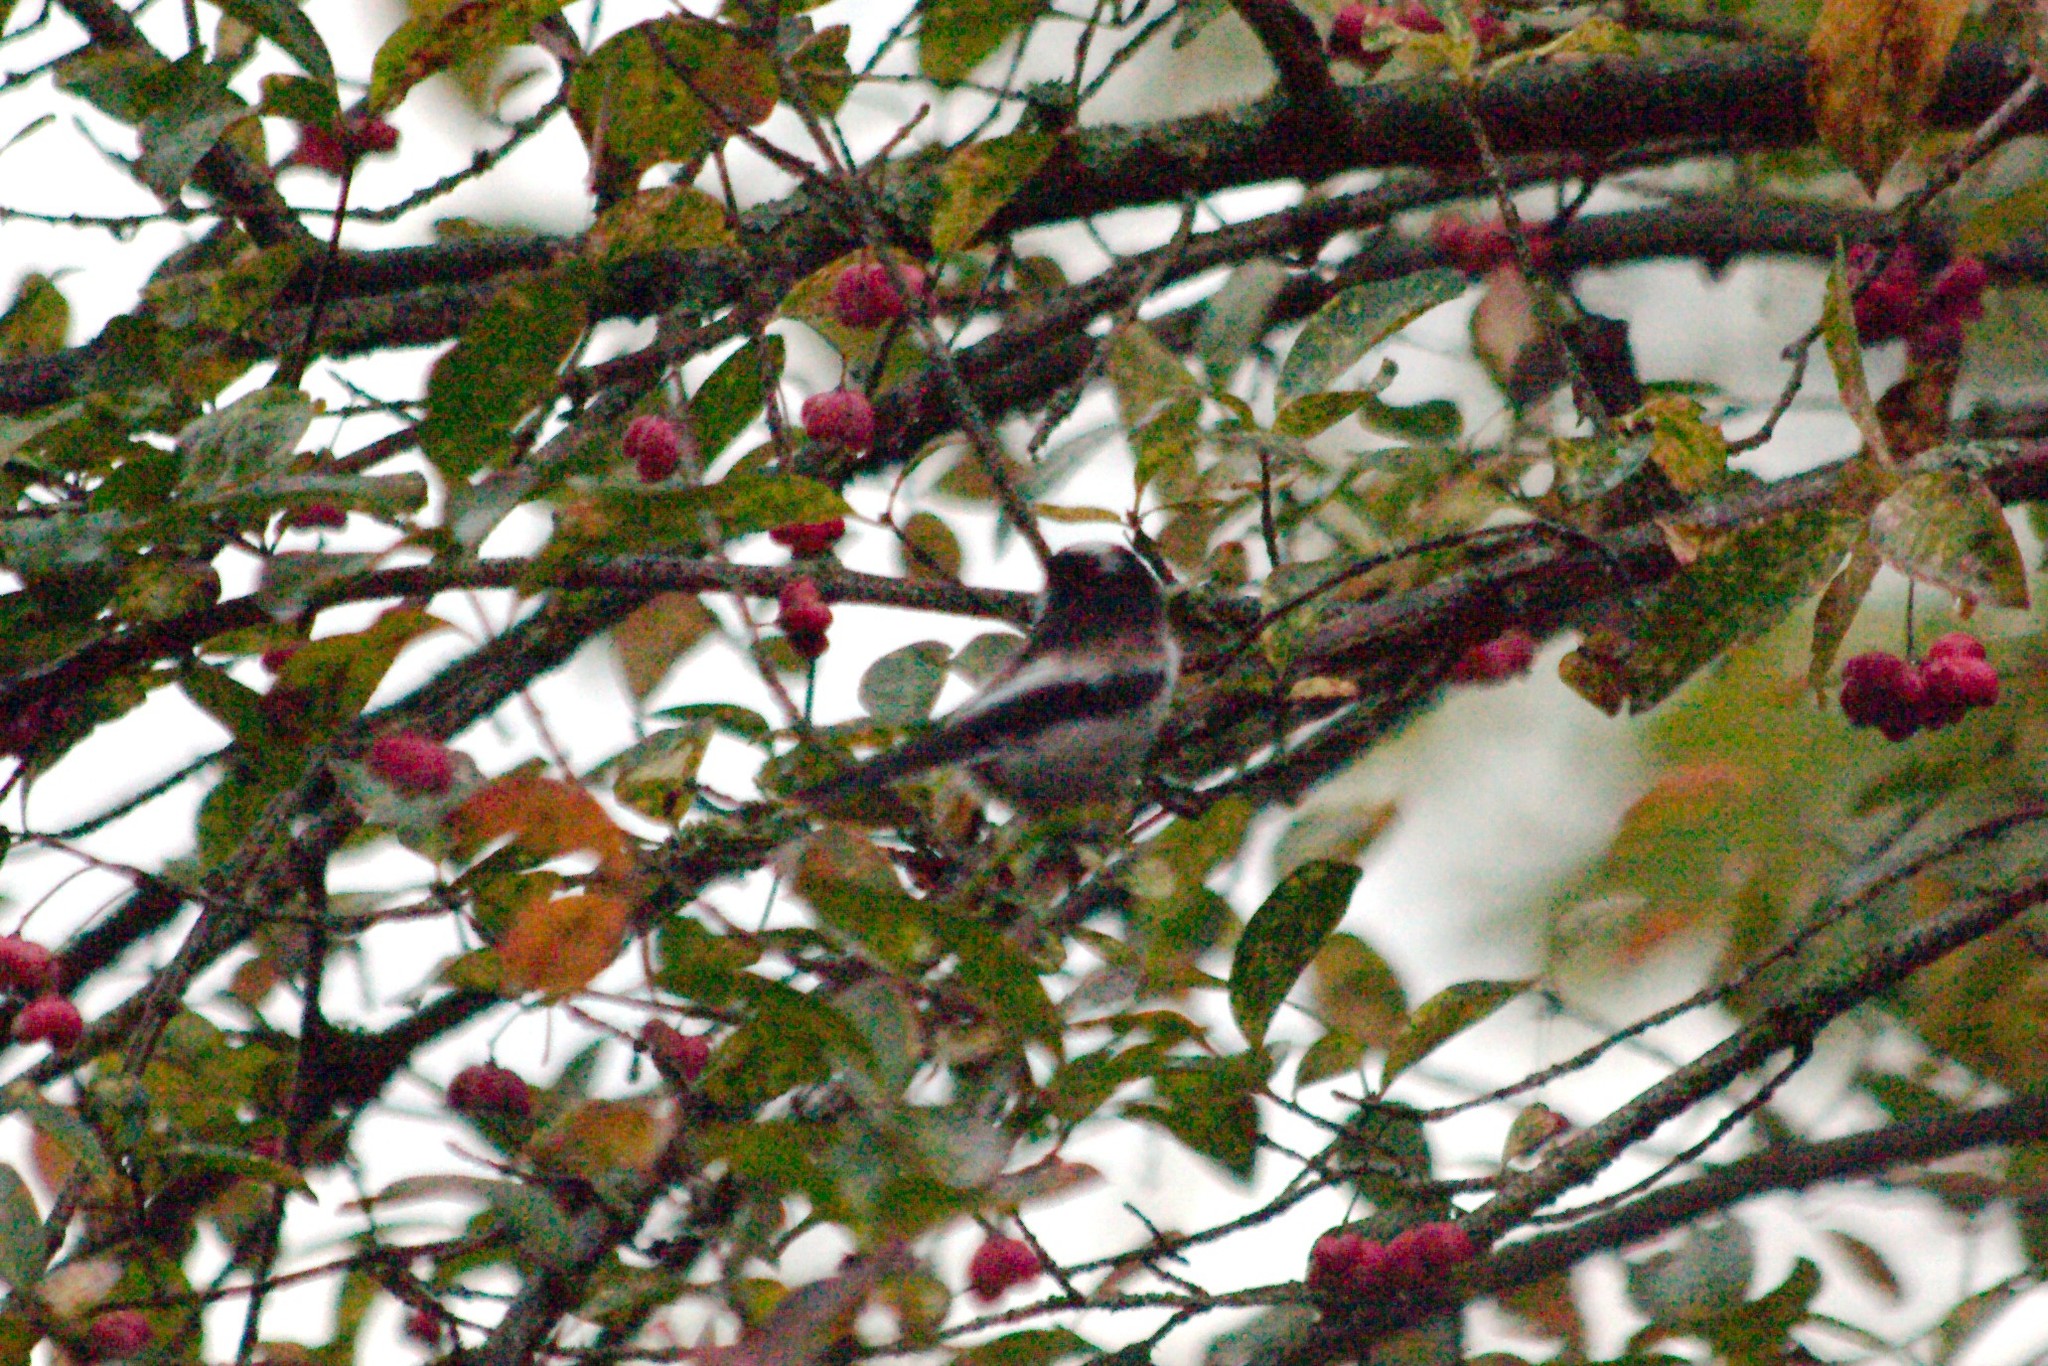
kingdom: Animalia
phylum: Chordata
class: Aves
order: Passeriformes
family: Aegithalidae
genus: Aegithalos
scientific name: Aegithalos caudatus
